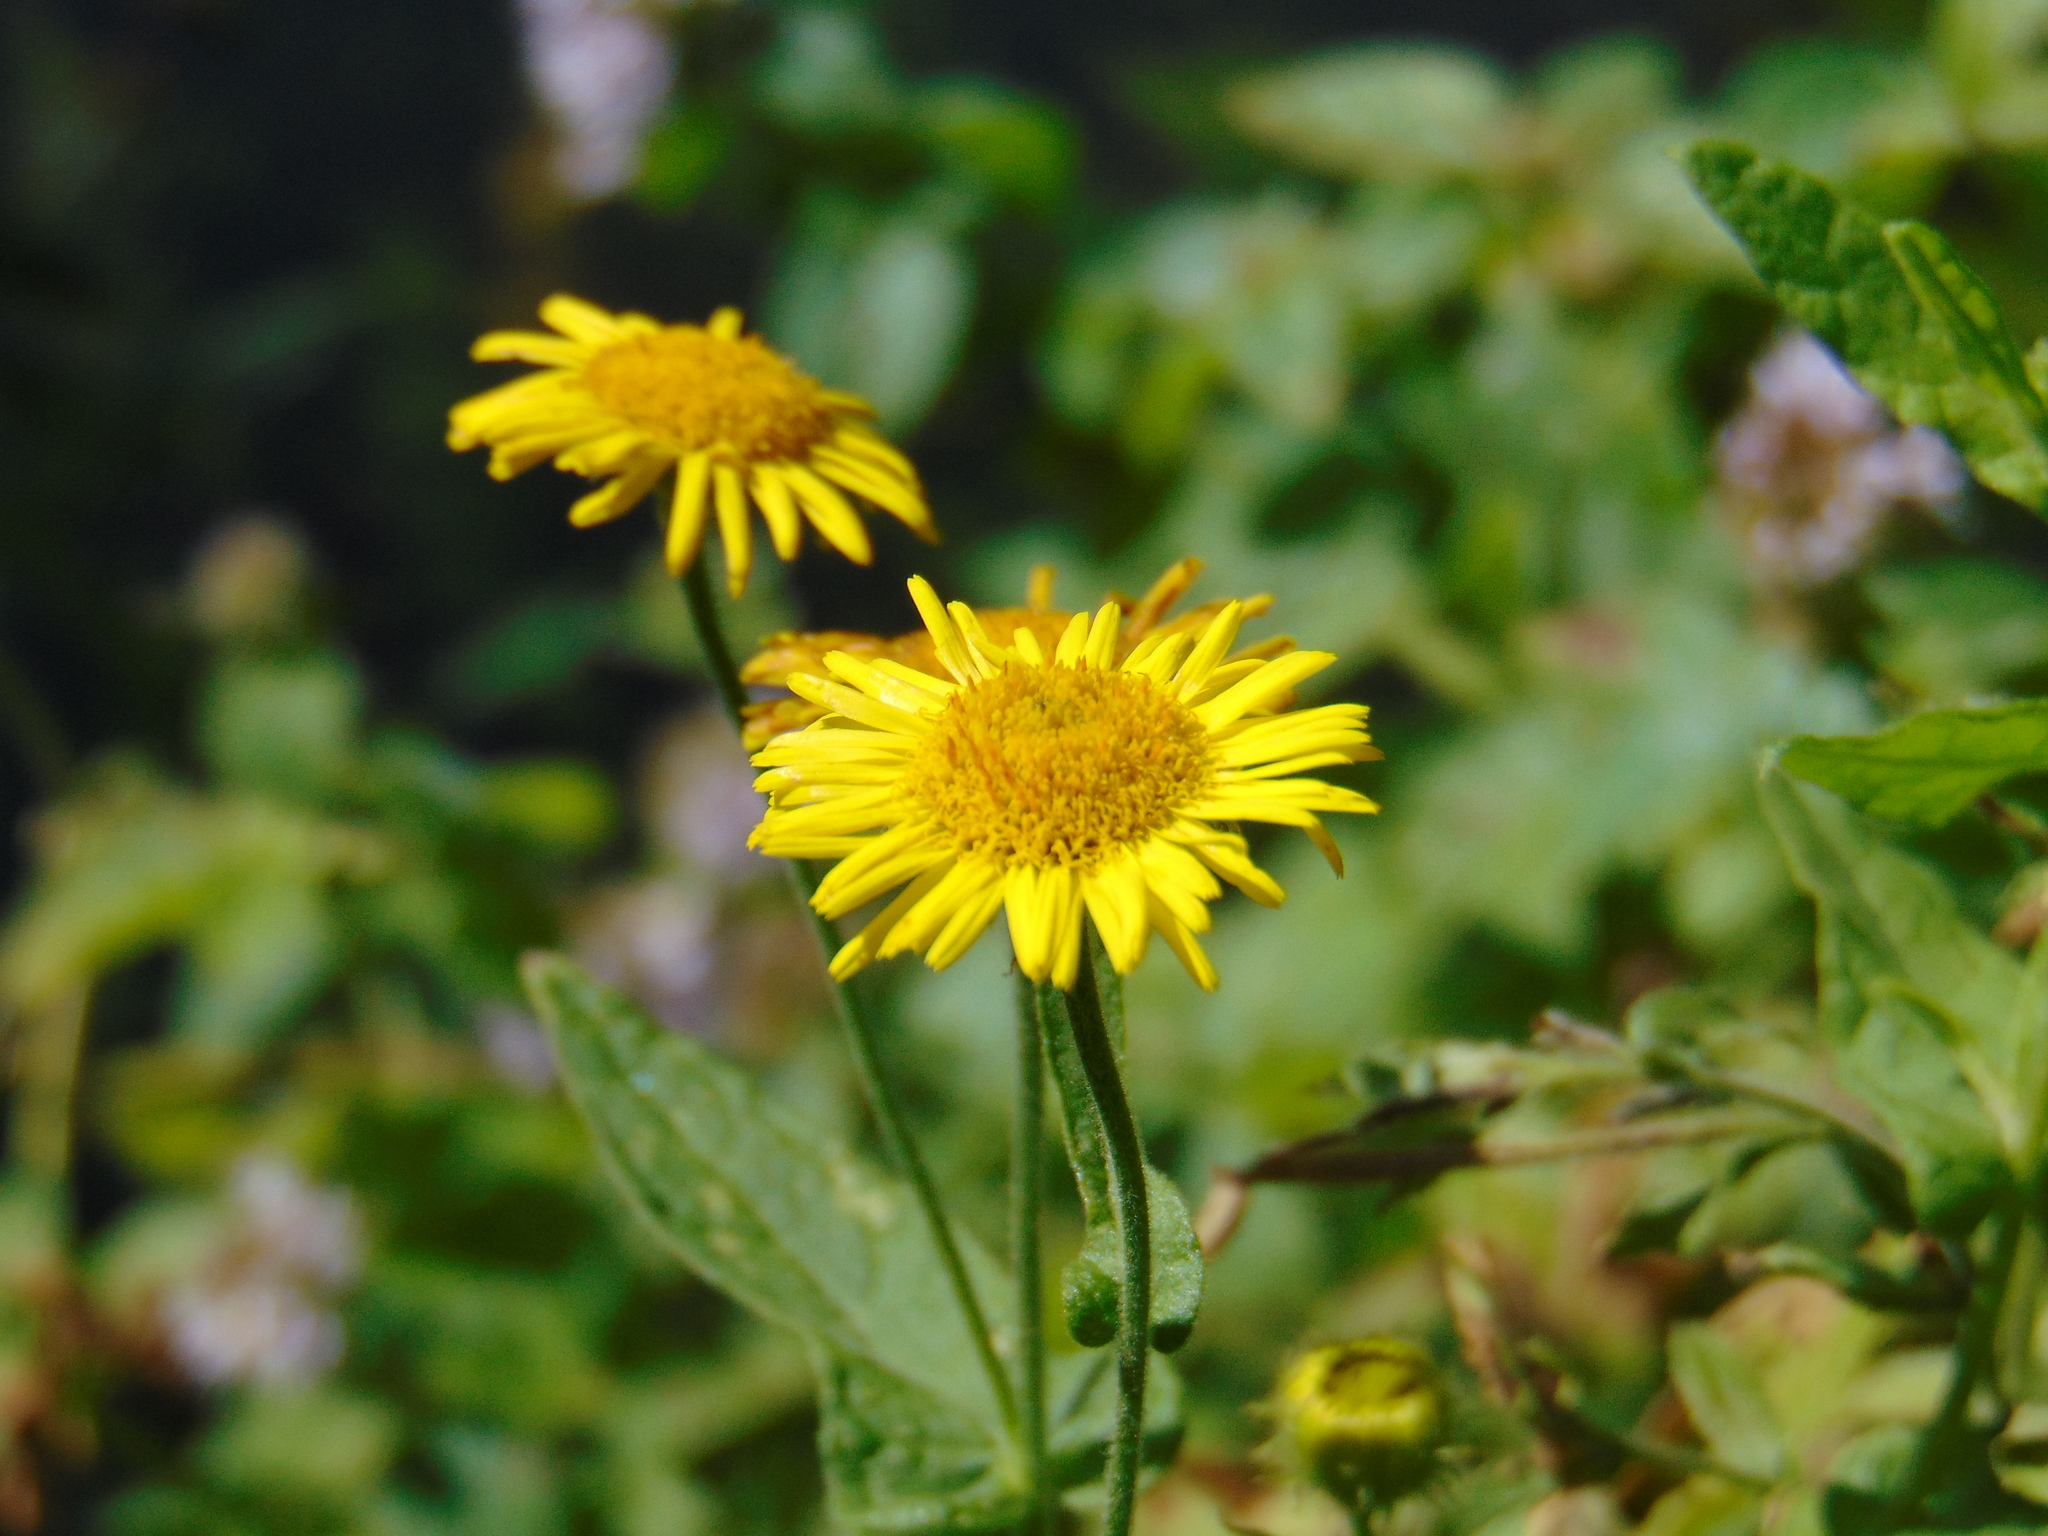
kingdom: Plantae
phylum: Tracheophyta
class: Magnoliopsida
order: Asterales
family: Asteraceae
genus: Pulicaria
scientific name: Pulicaria dysenterica
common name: Common fleabane
